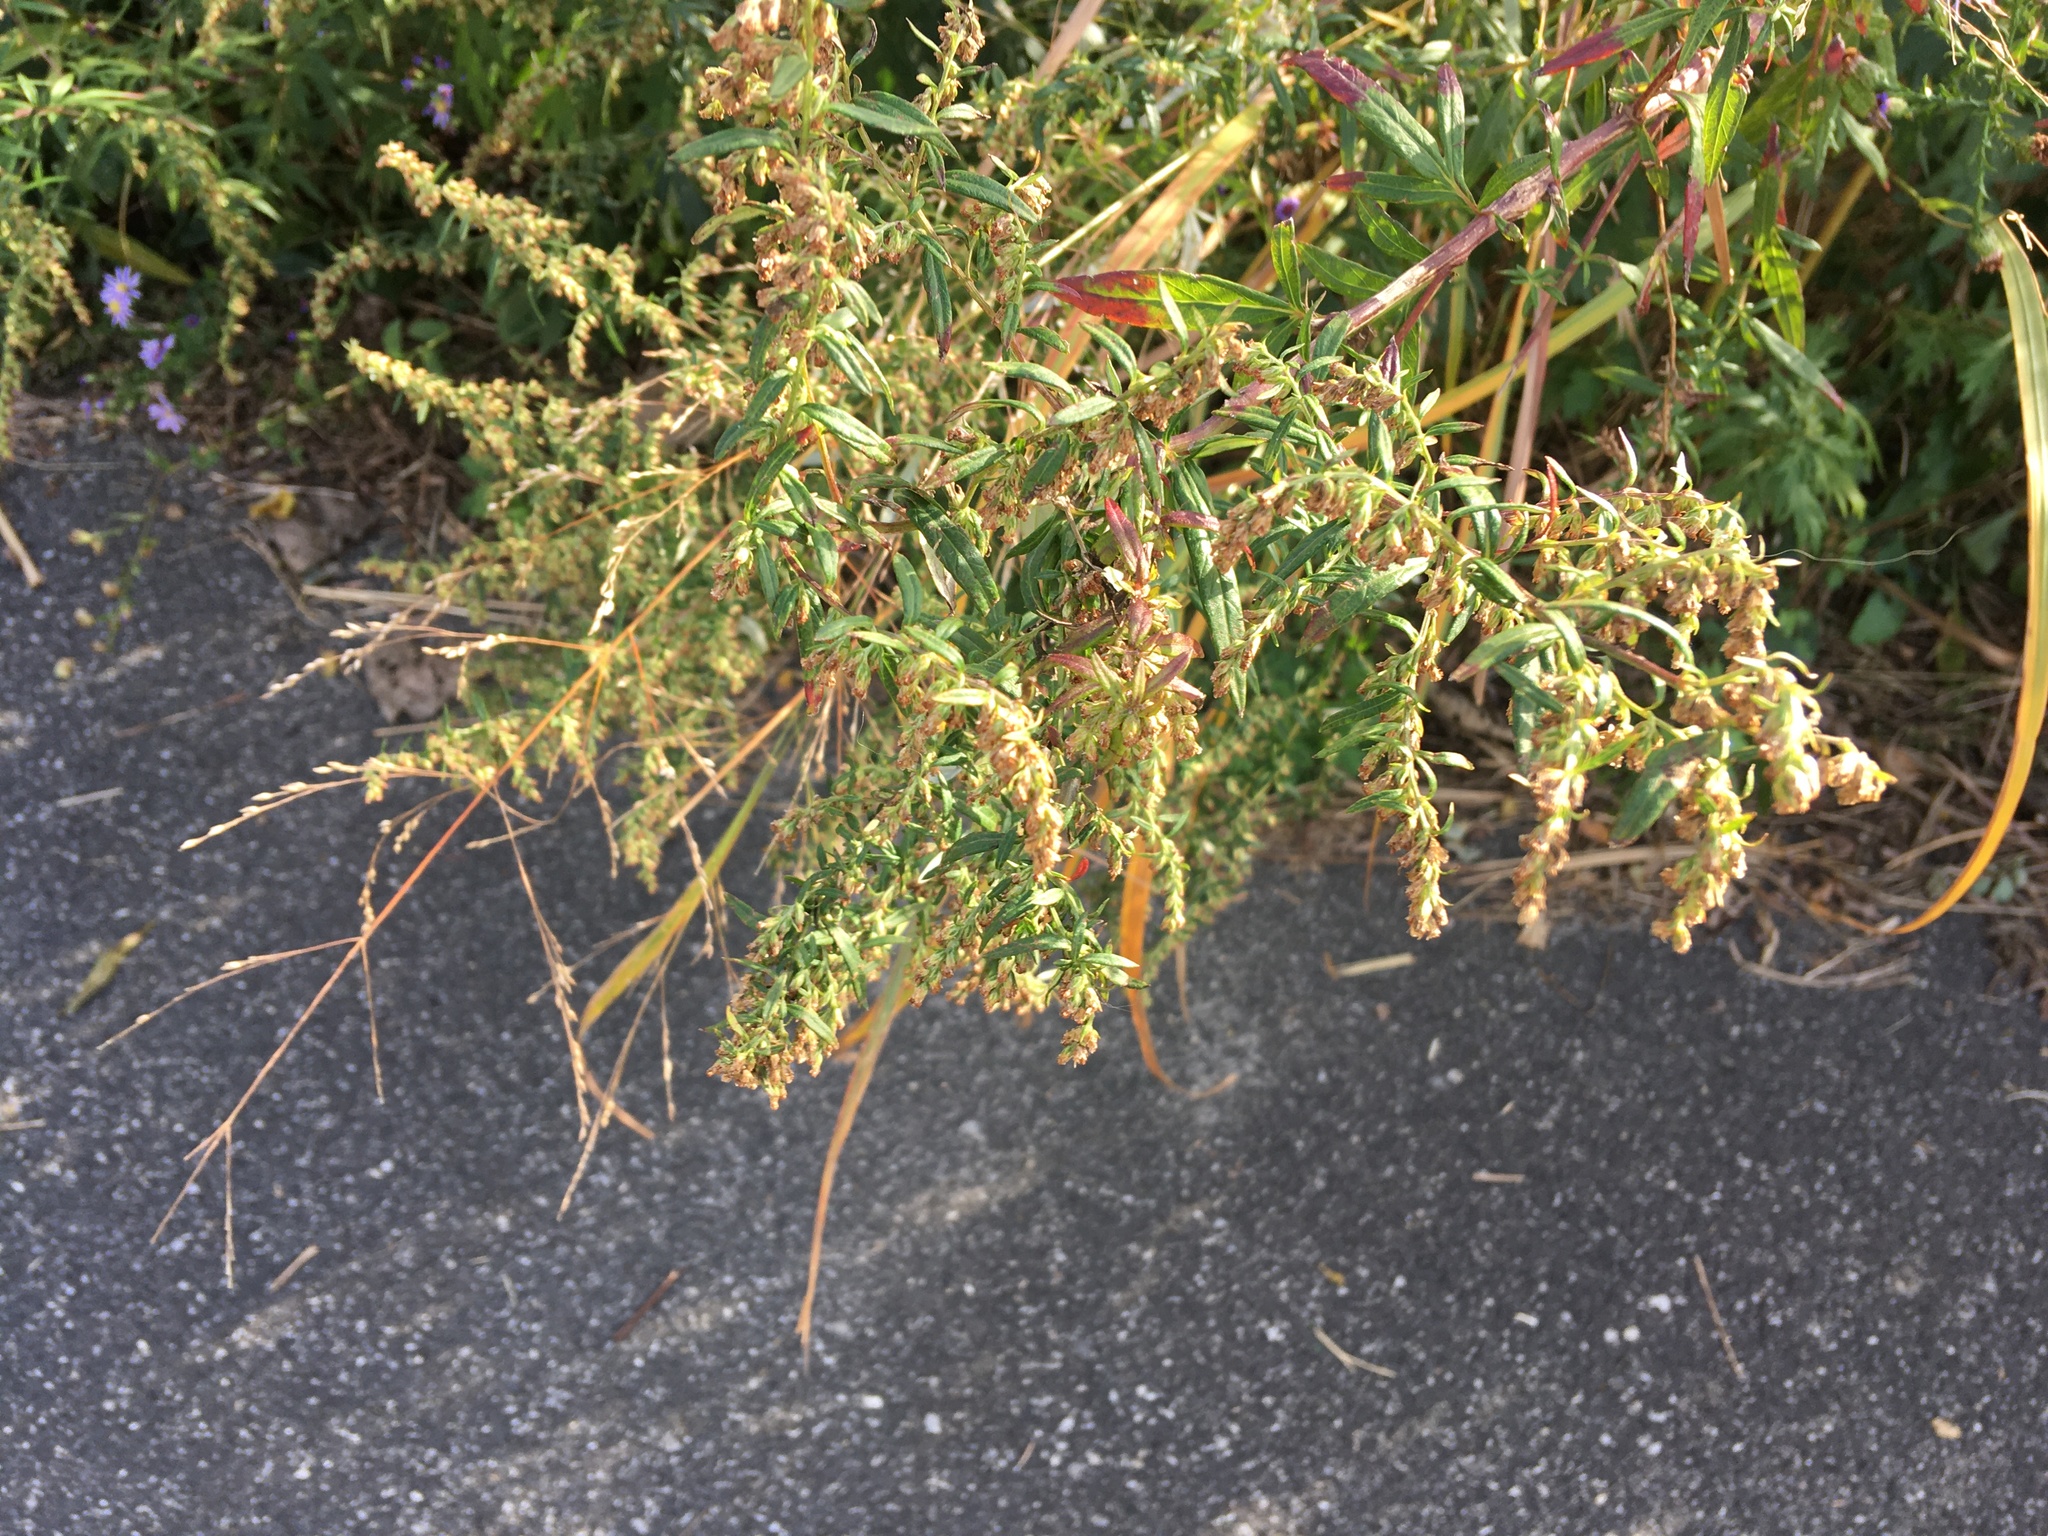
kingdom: Plantae
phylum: Tracheophyta
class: Magnoliopsida
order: Asterales
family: Asteraceae
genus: Artemisia
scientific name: Artemisia vulgaris
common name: Mugwort
